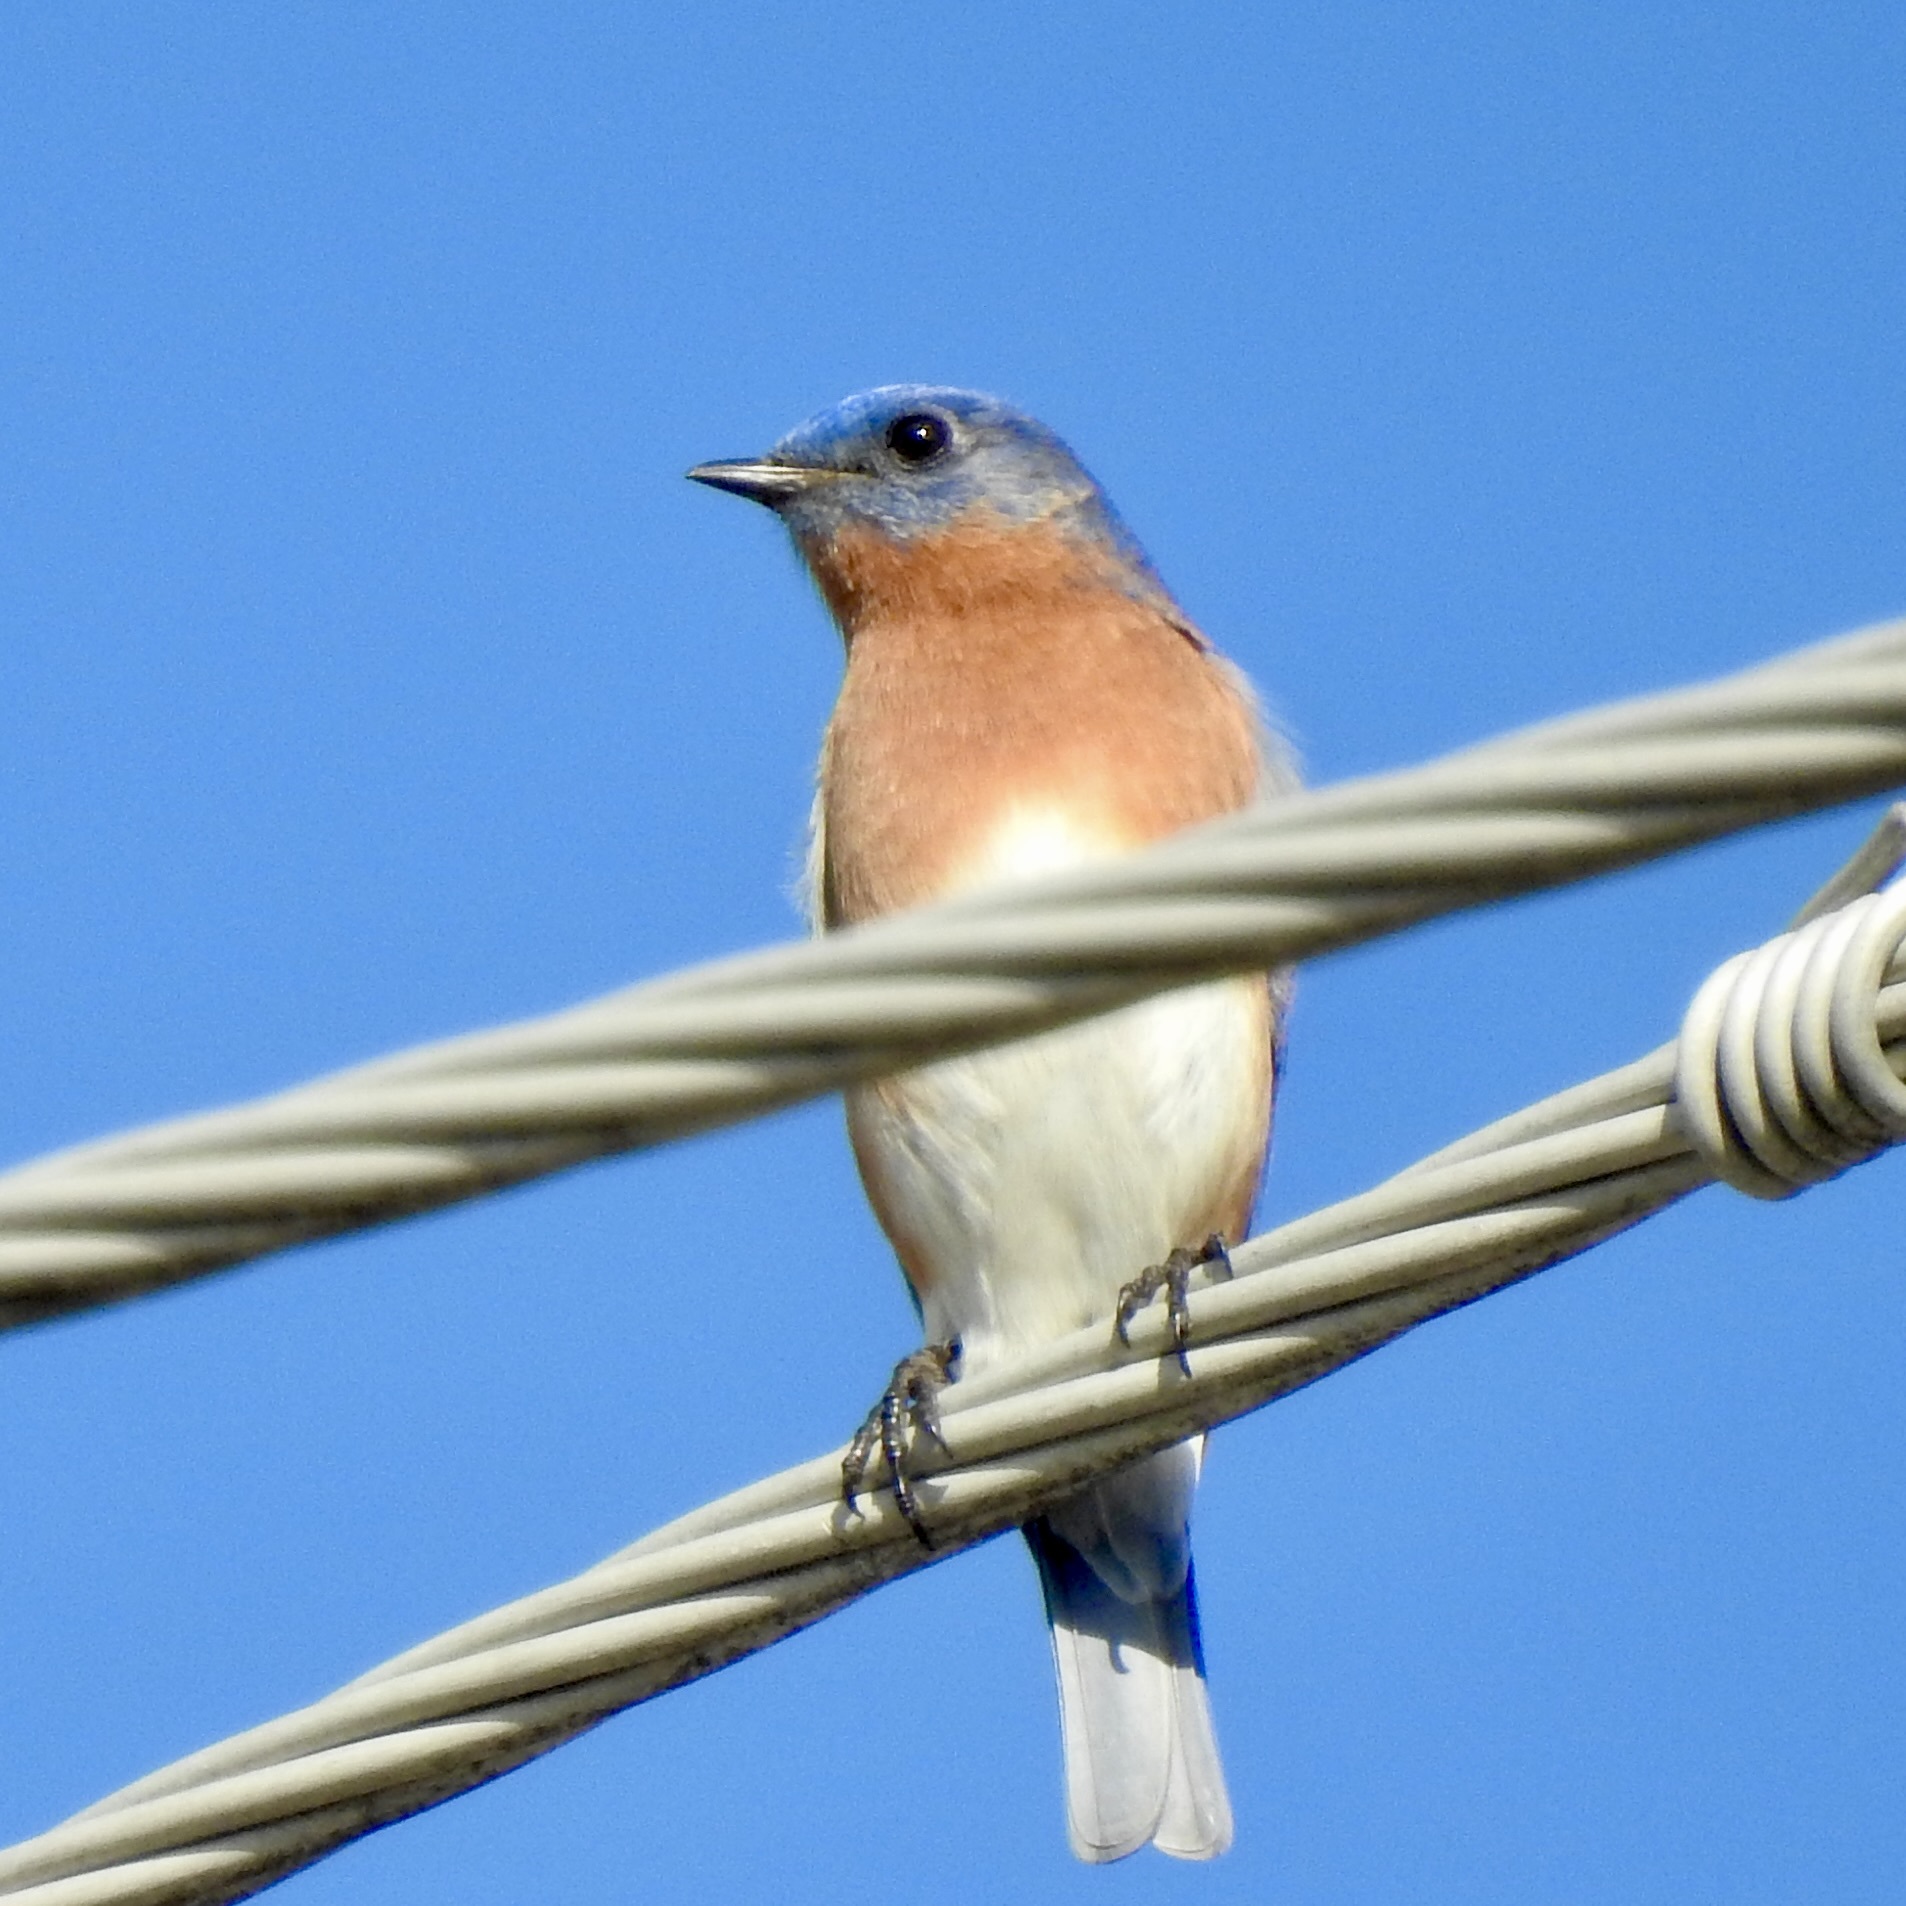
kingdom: Animalia
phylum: Chordata
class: Aves
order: Passeriformes
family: Turdidae
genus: Sialia
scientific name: Sialia sialis
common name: Eastern bluebird
